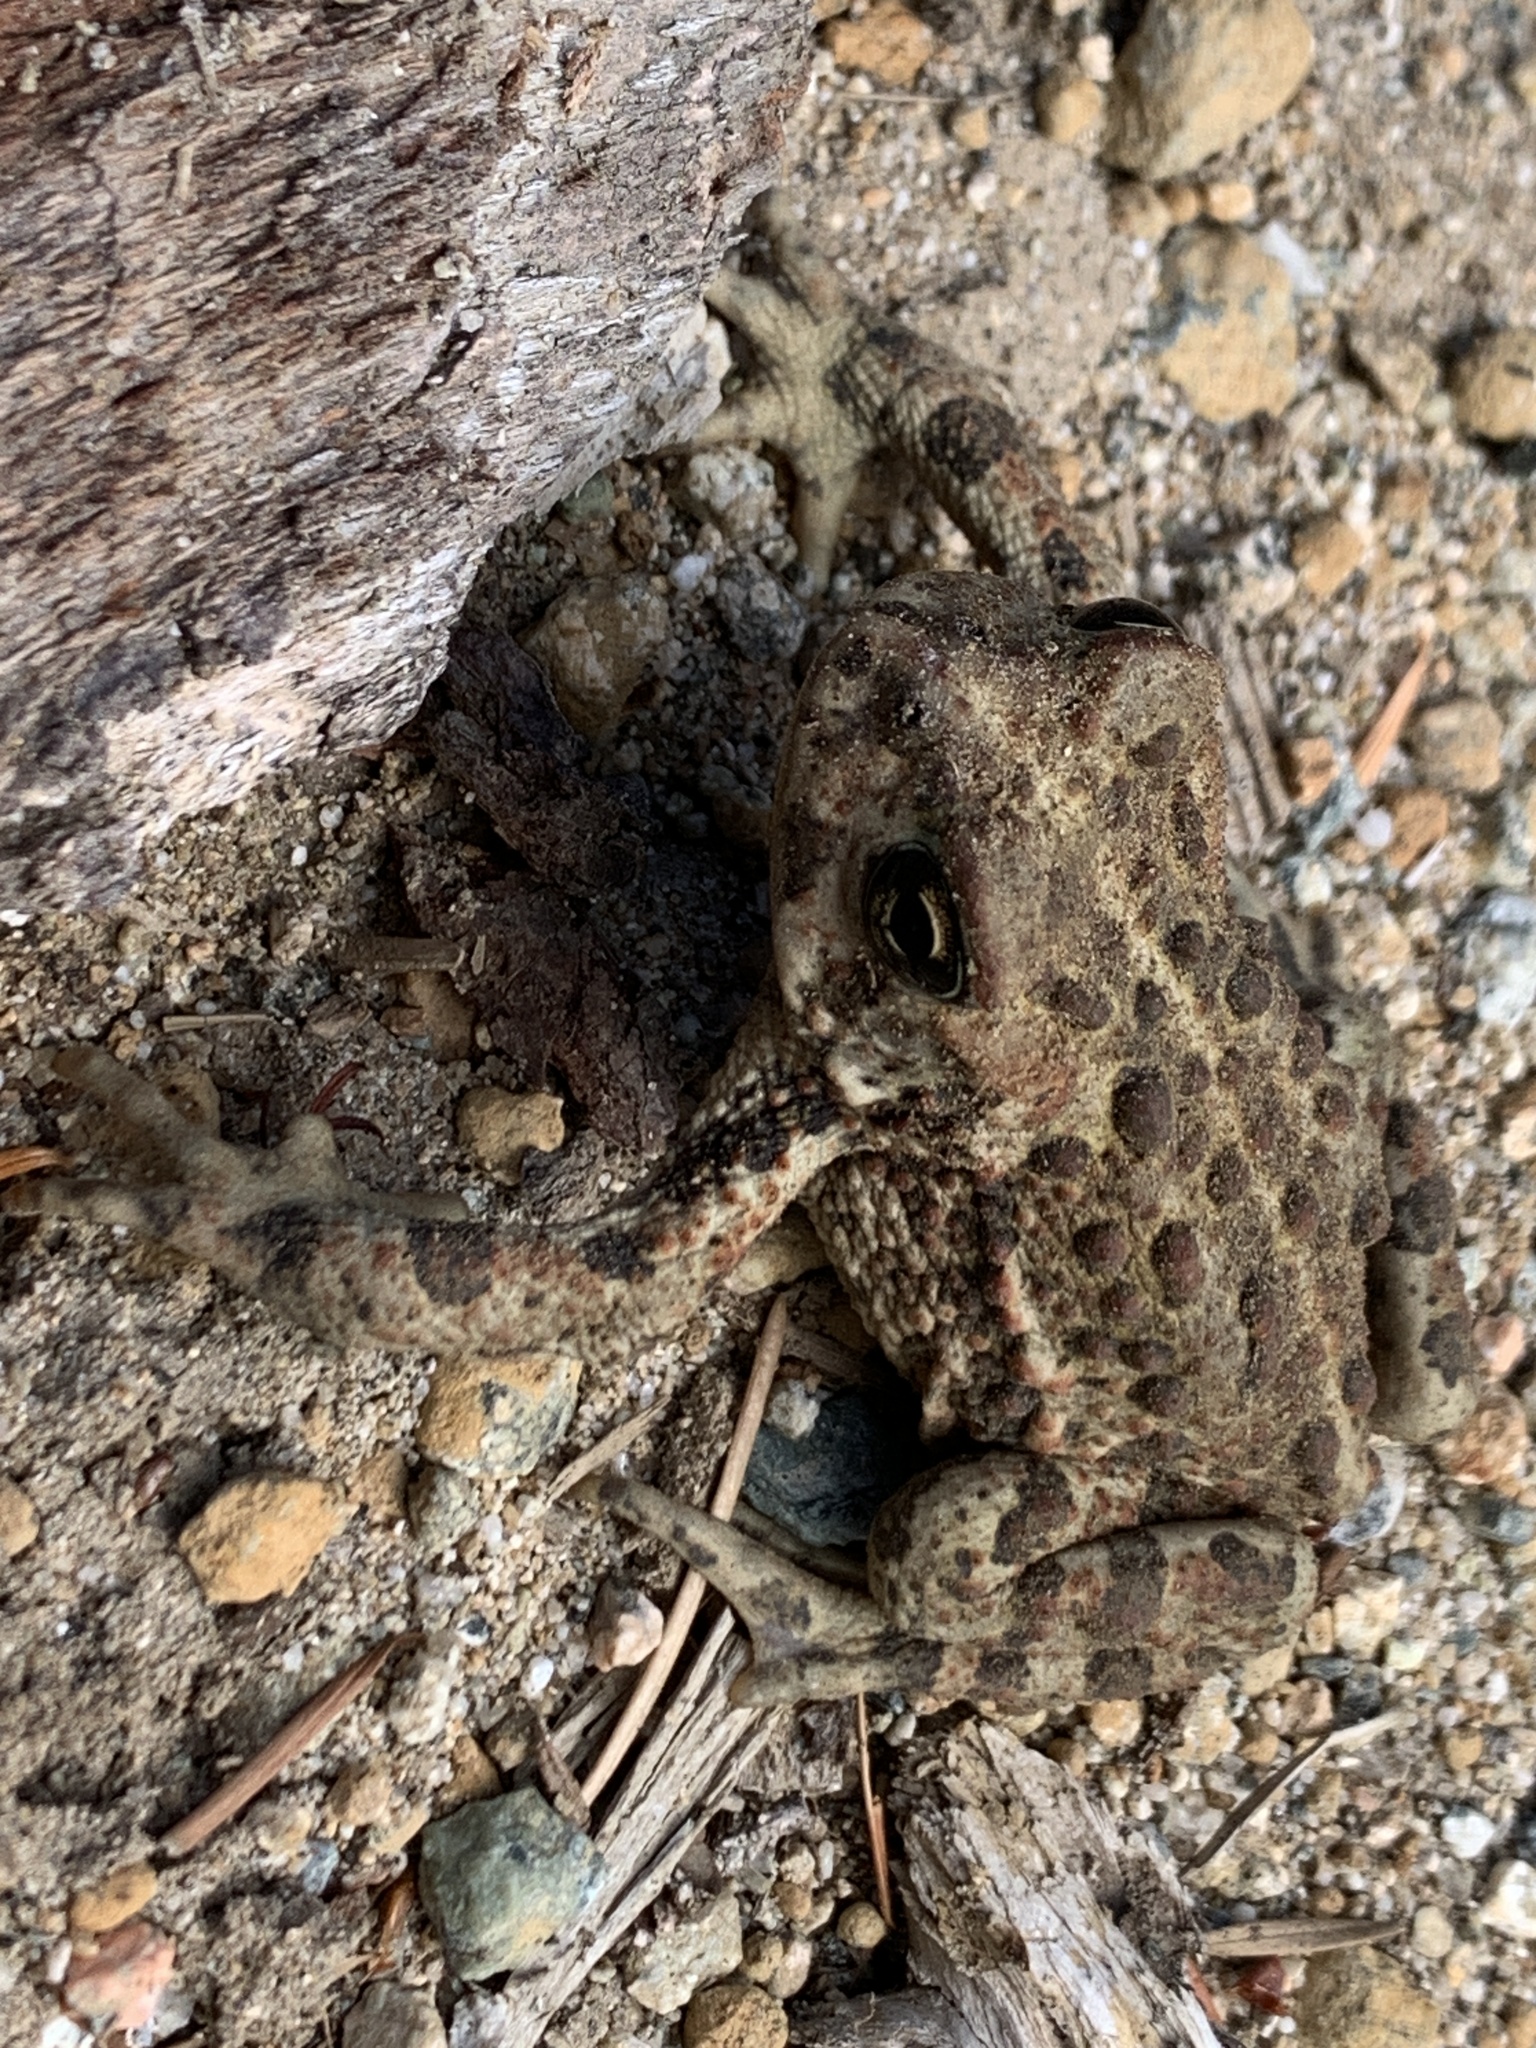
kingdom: Animalia
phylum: Chordata
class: Amphibia
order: Anura
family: Bufonidae
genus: Anaxyrus
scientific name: Anaxyrus boreas
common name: Western toad
